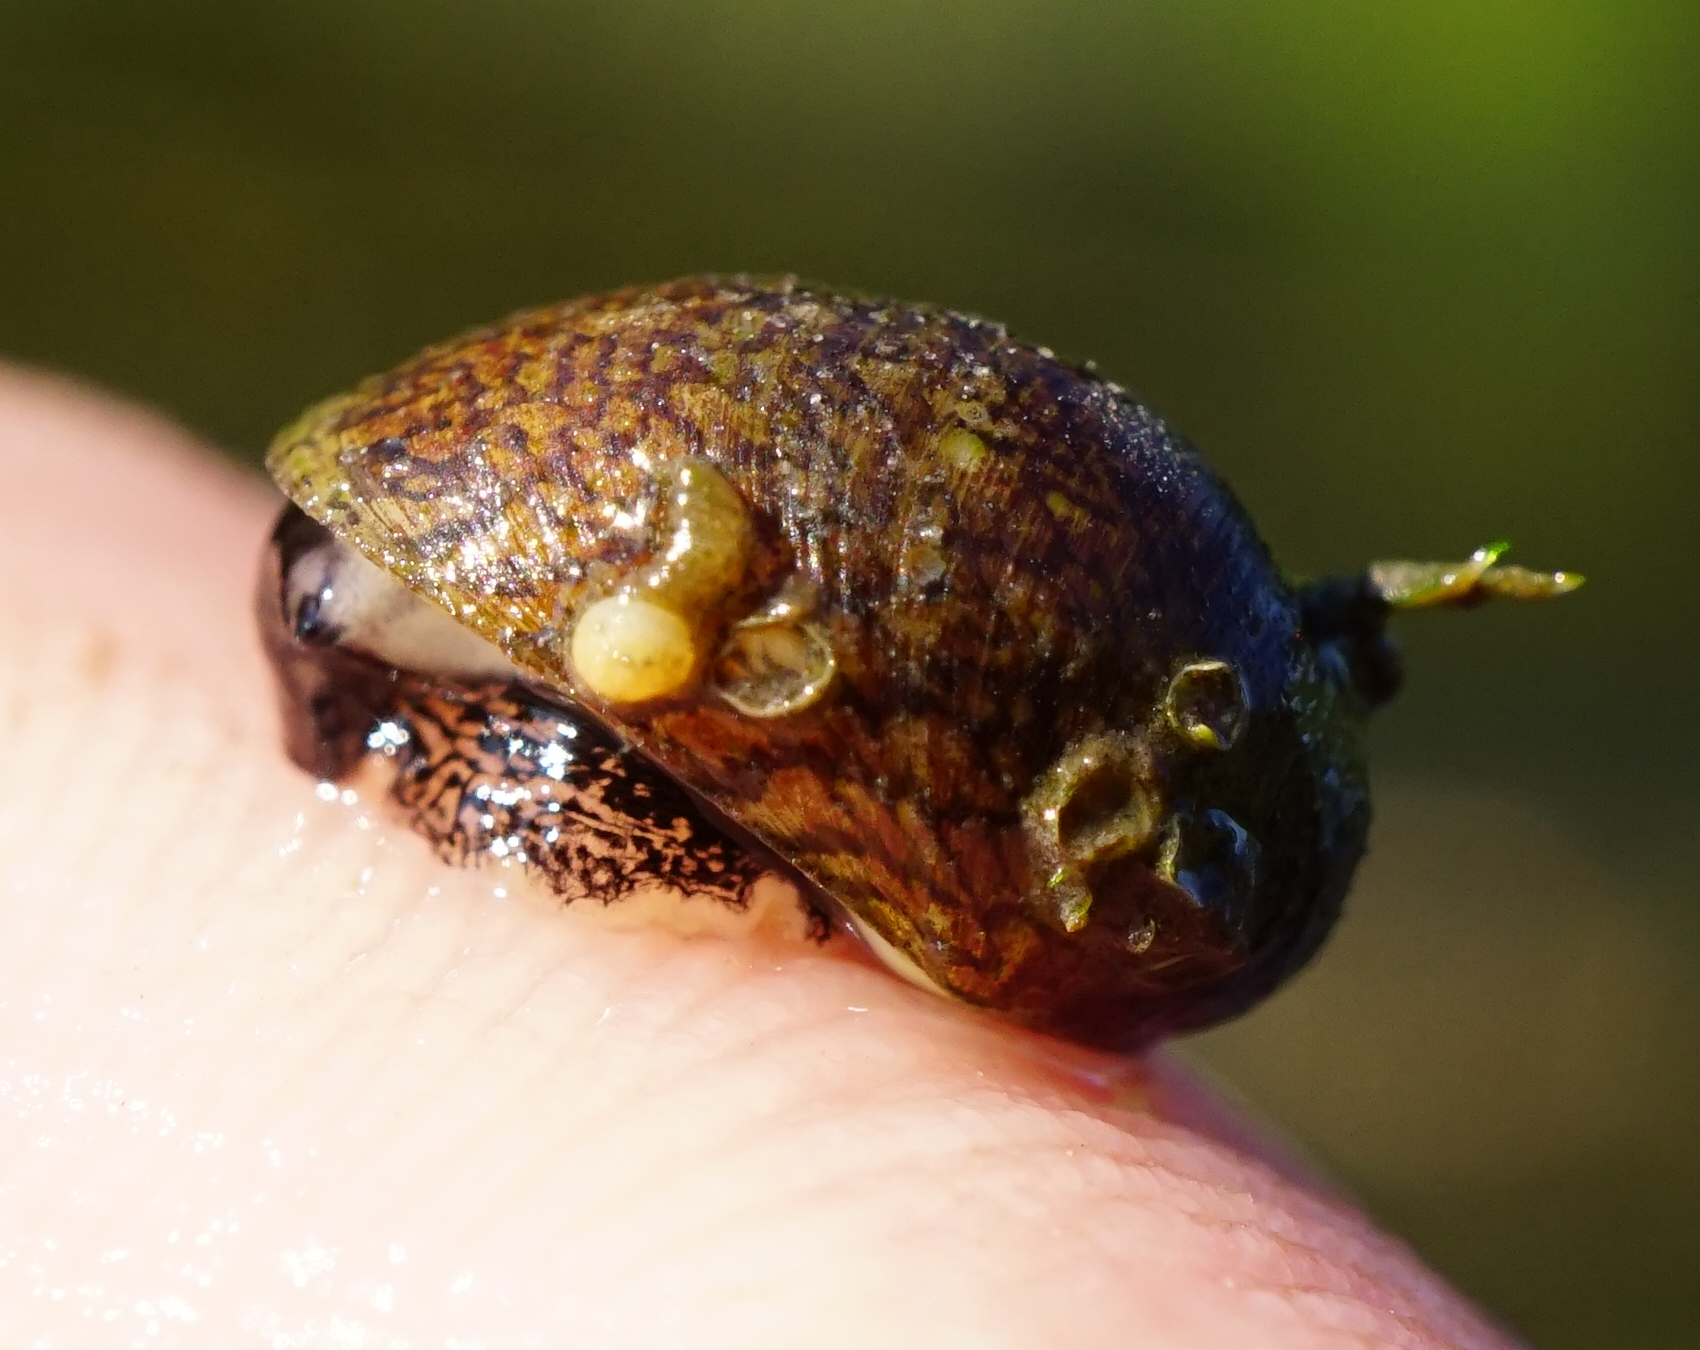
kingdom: Animalia
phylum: Mollusca
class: Gastropoda
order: Cycloneritida
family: Neritidae
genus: Theodoxus
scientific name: Theodoxus fluviatilis
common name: River nerite
